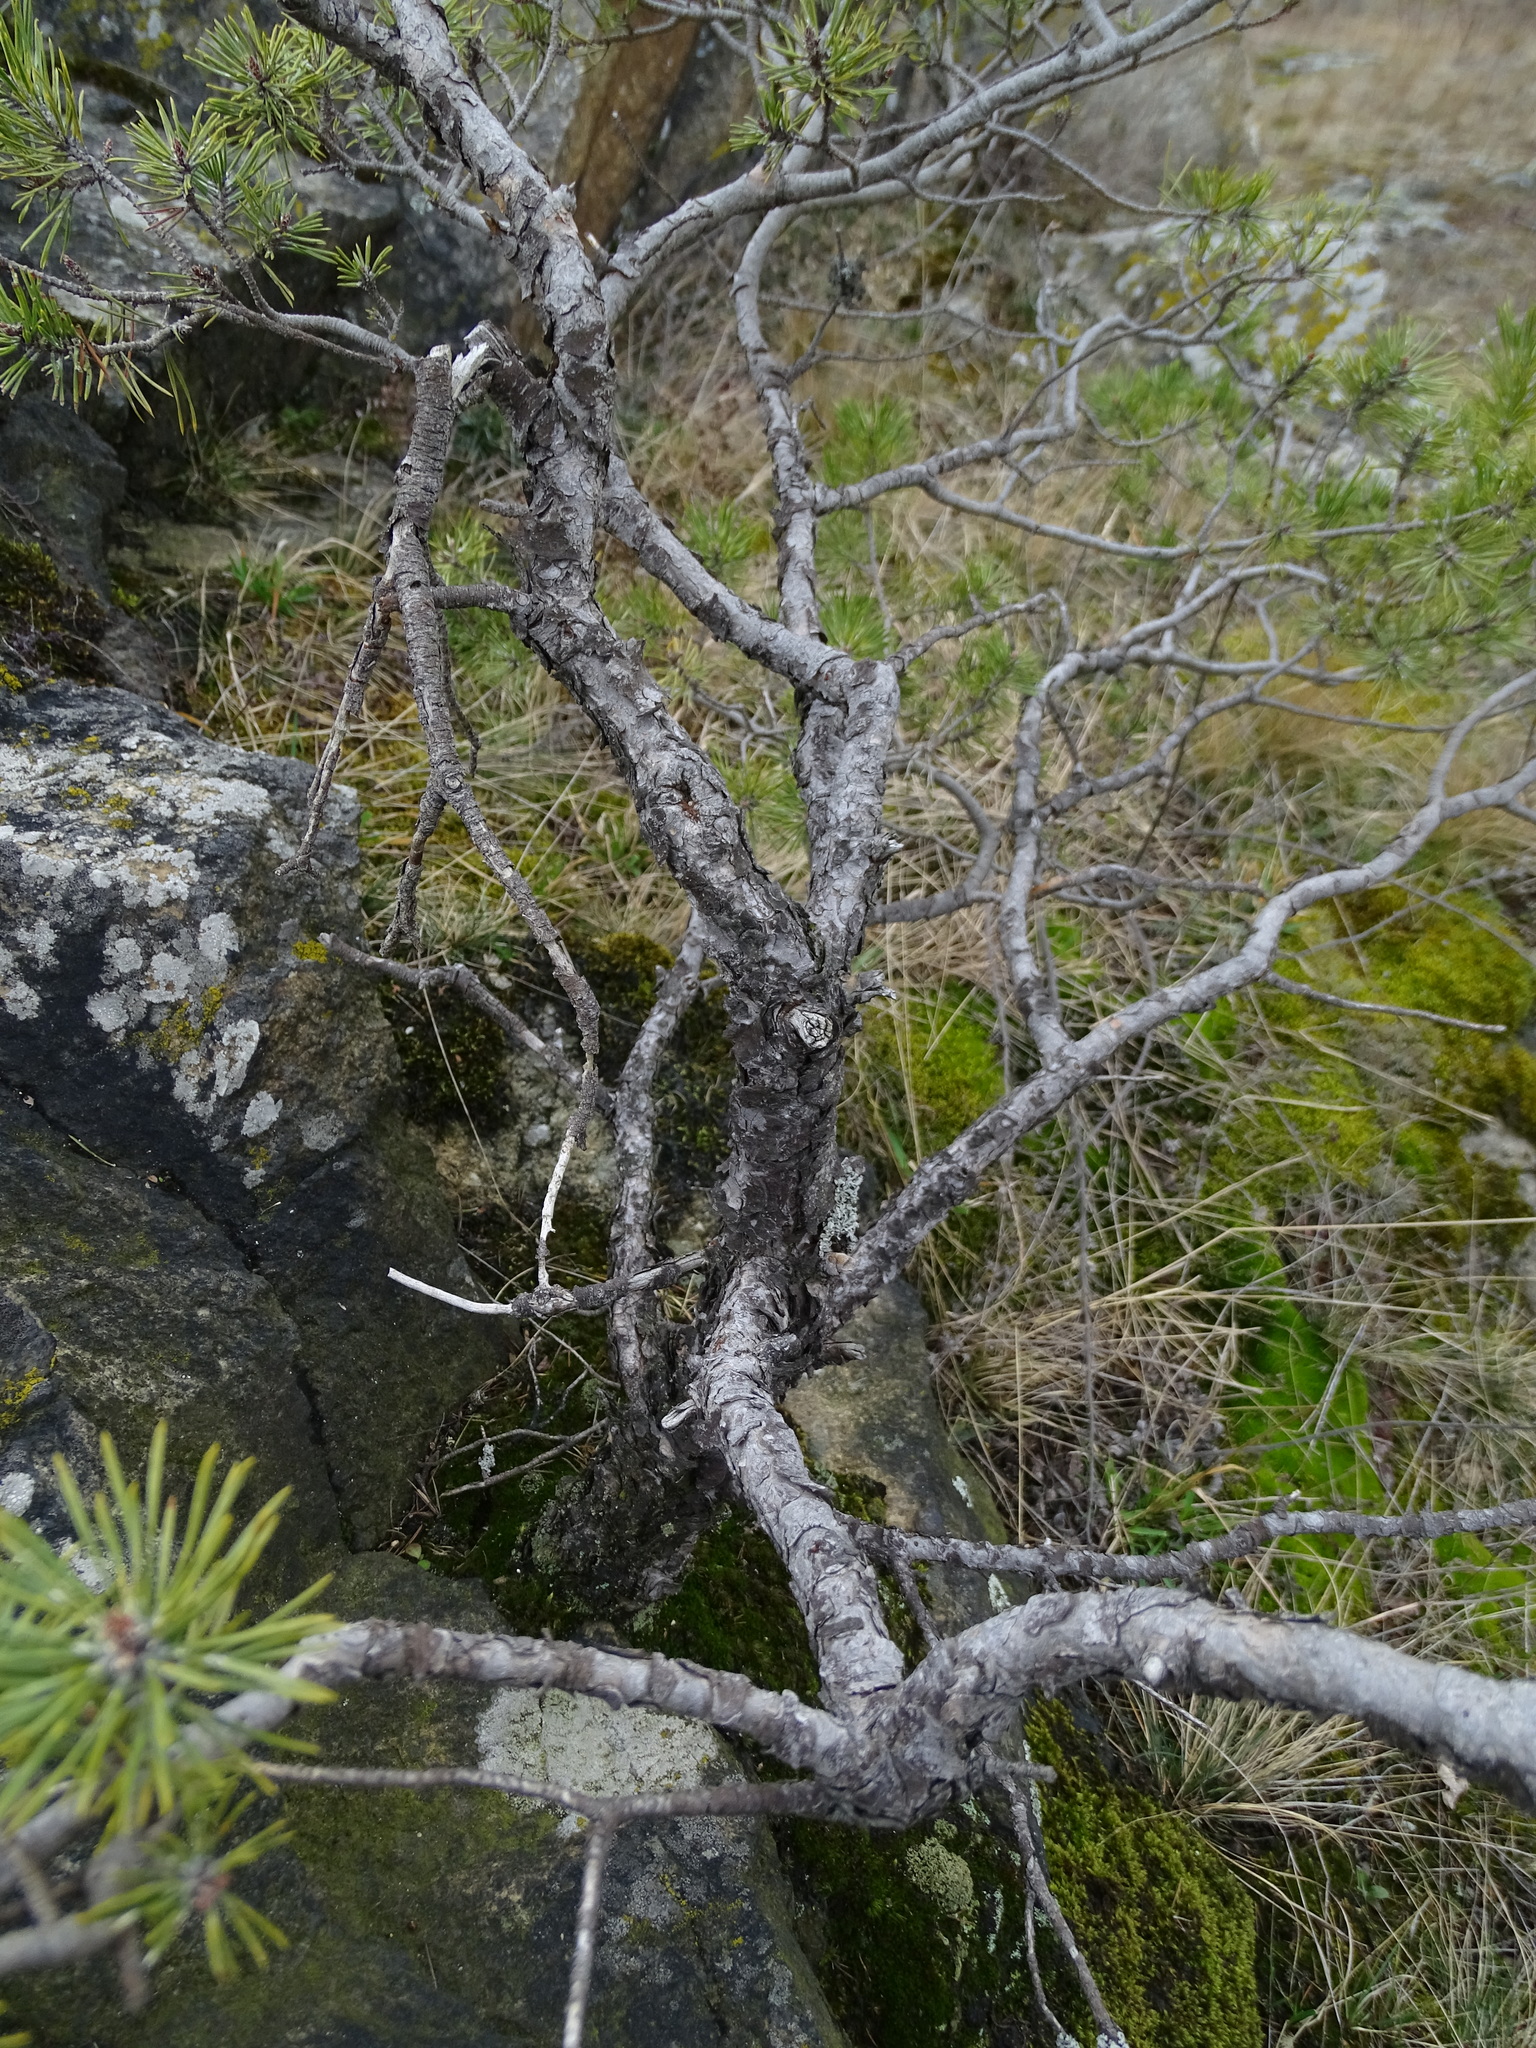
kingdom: Plantae
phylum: Tracheophyta
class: Pinopsida
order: Pinales
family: Pinaceae
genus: Pinus
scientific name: Pinus sylvestris
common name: Scots pine
